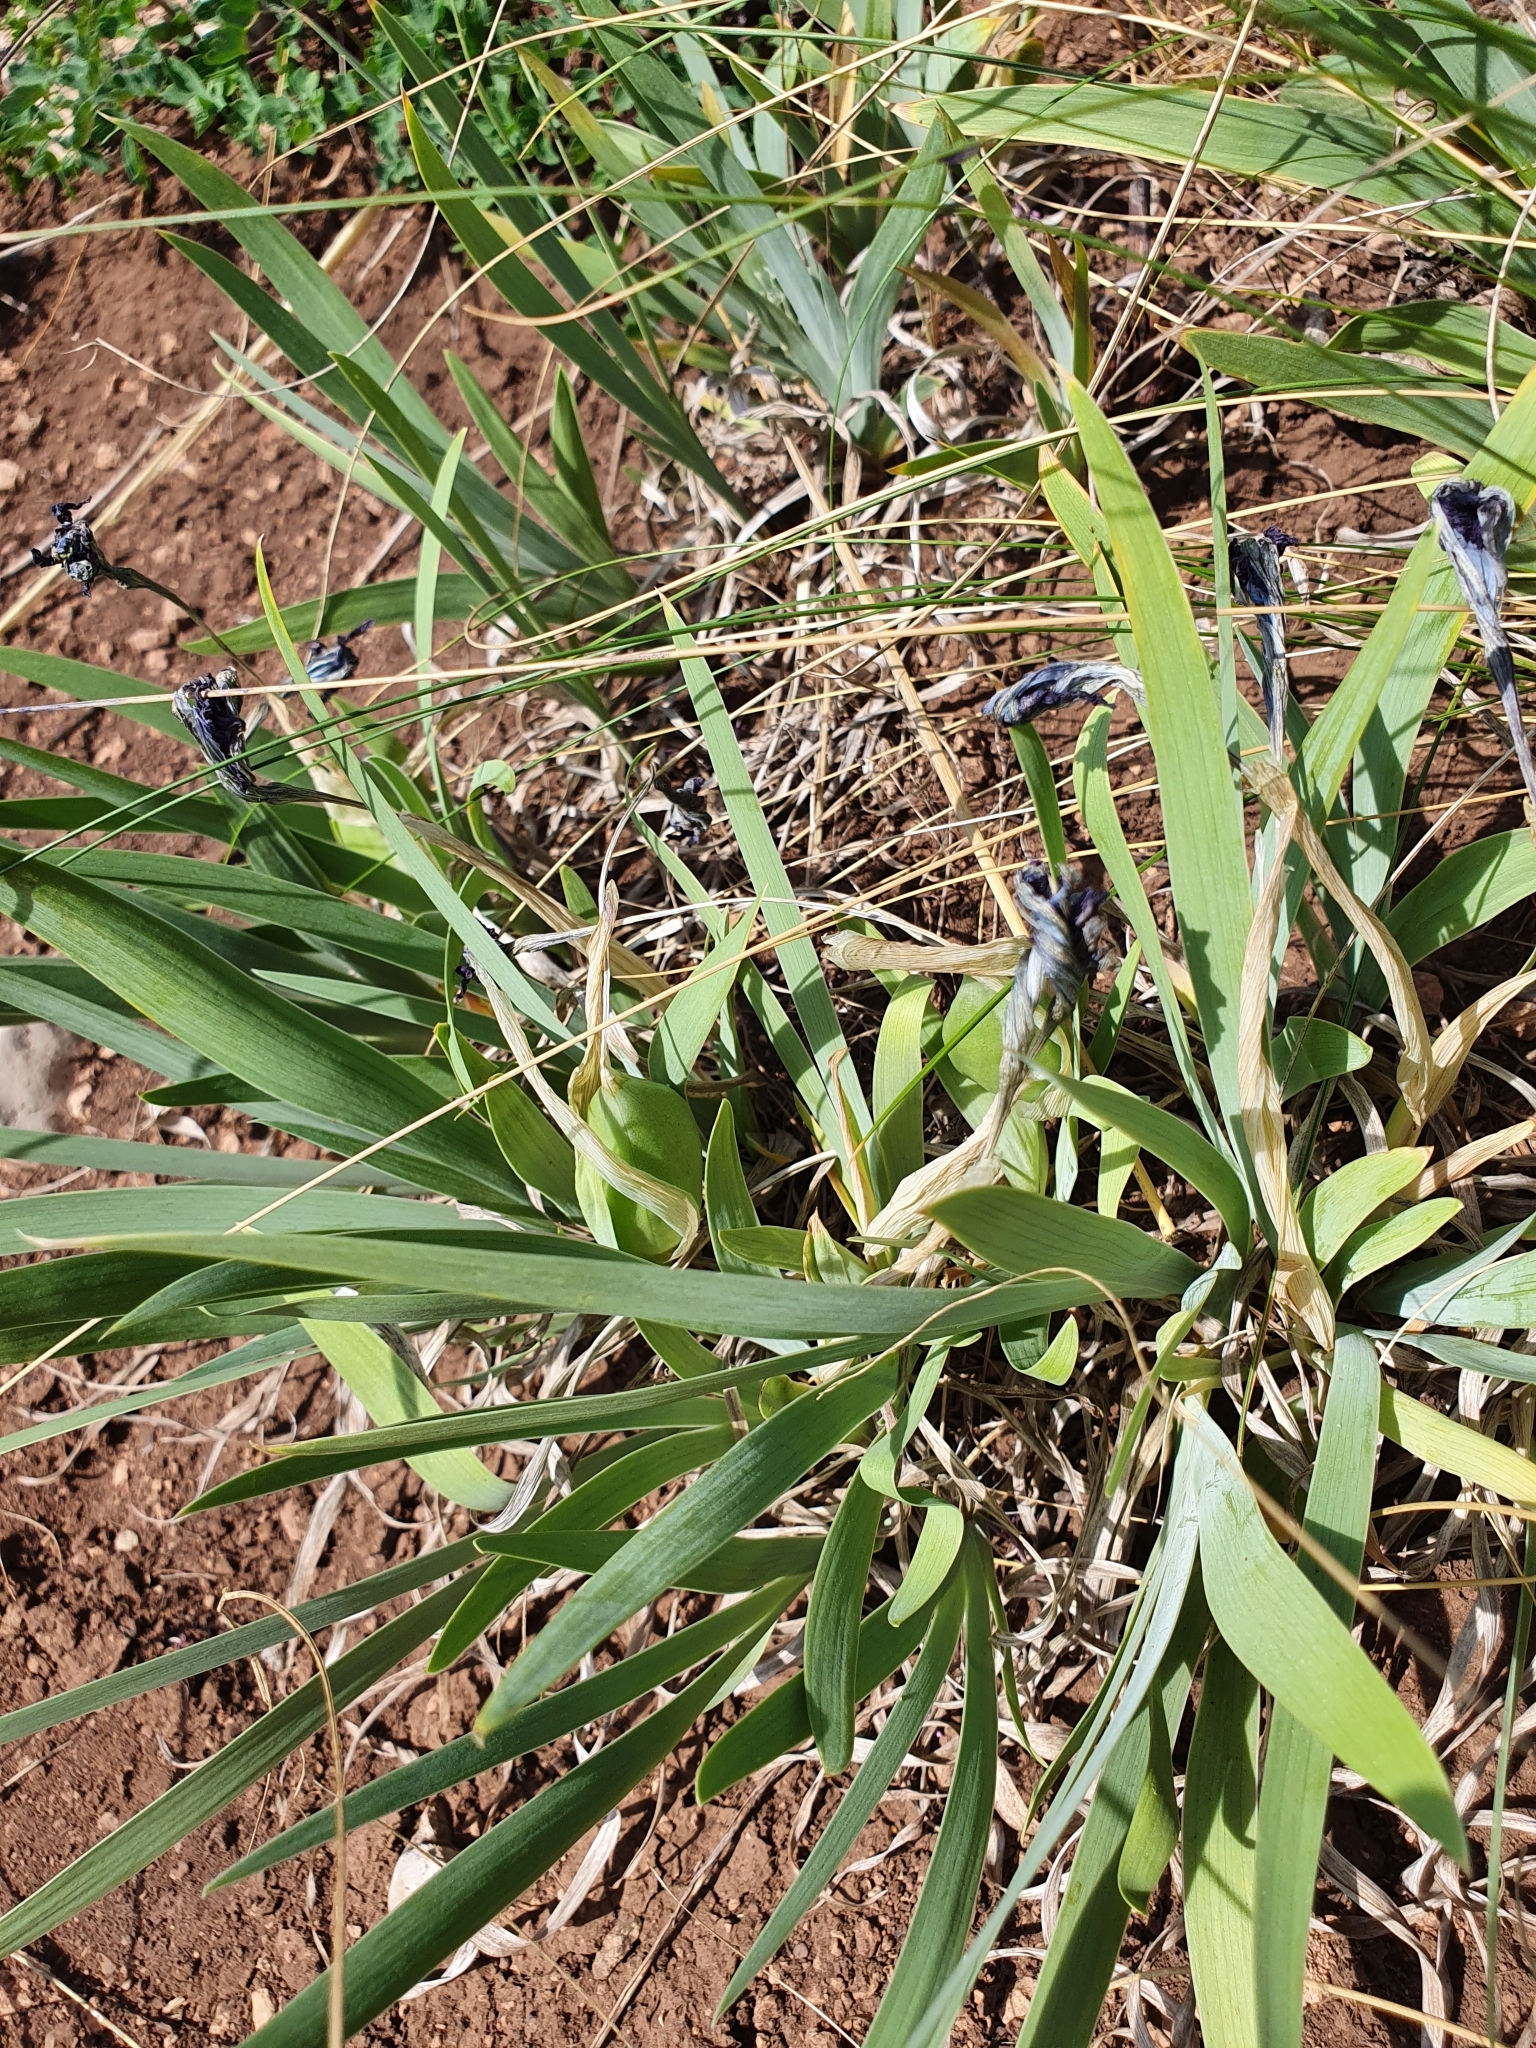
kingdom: Plantae
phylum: Tracheophyta
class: Liliopsida
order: Asparagales
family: Iridaceae
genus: Iris
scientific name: Iris pumila
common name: Dwarf iris
